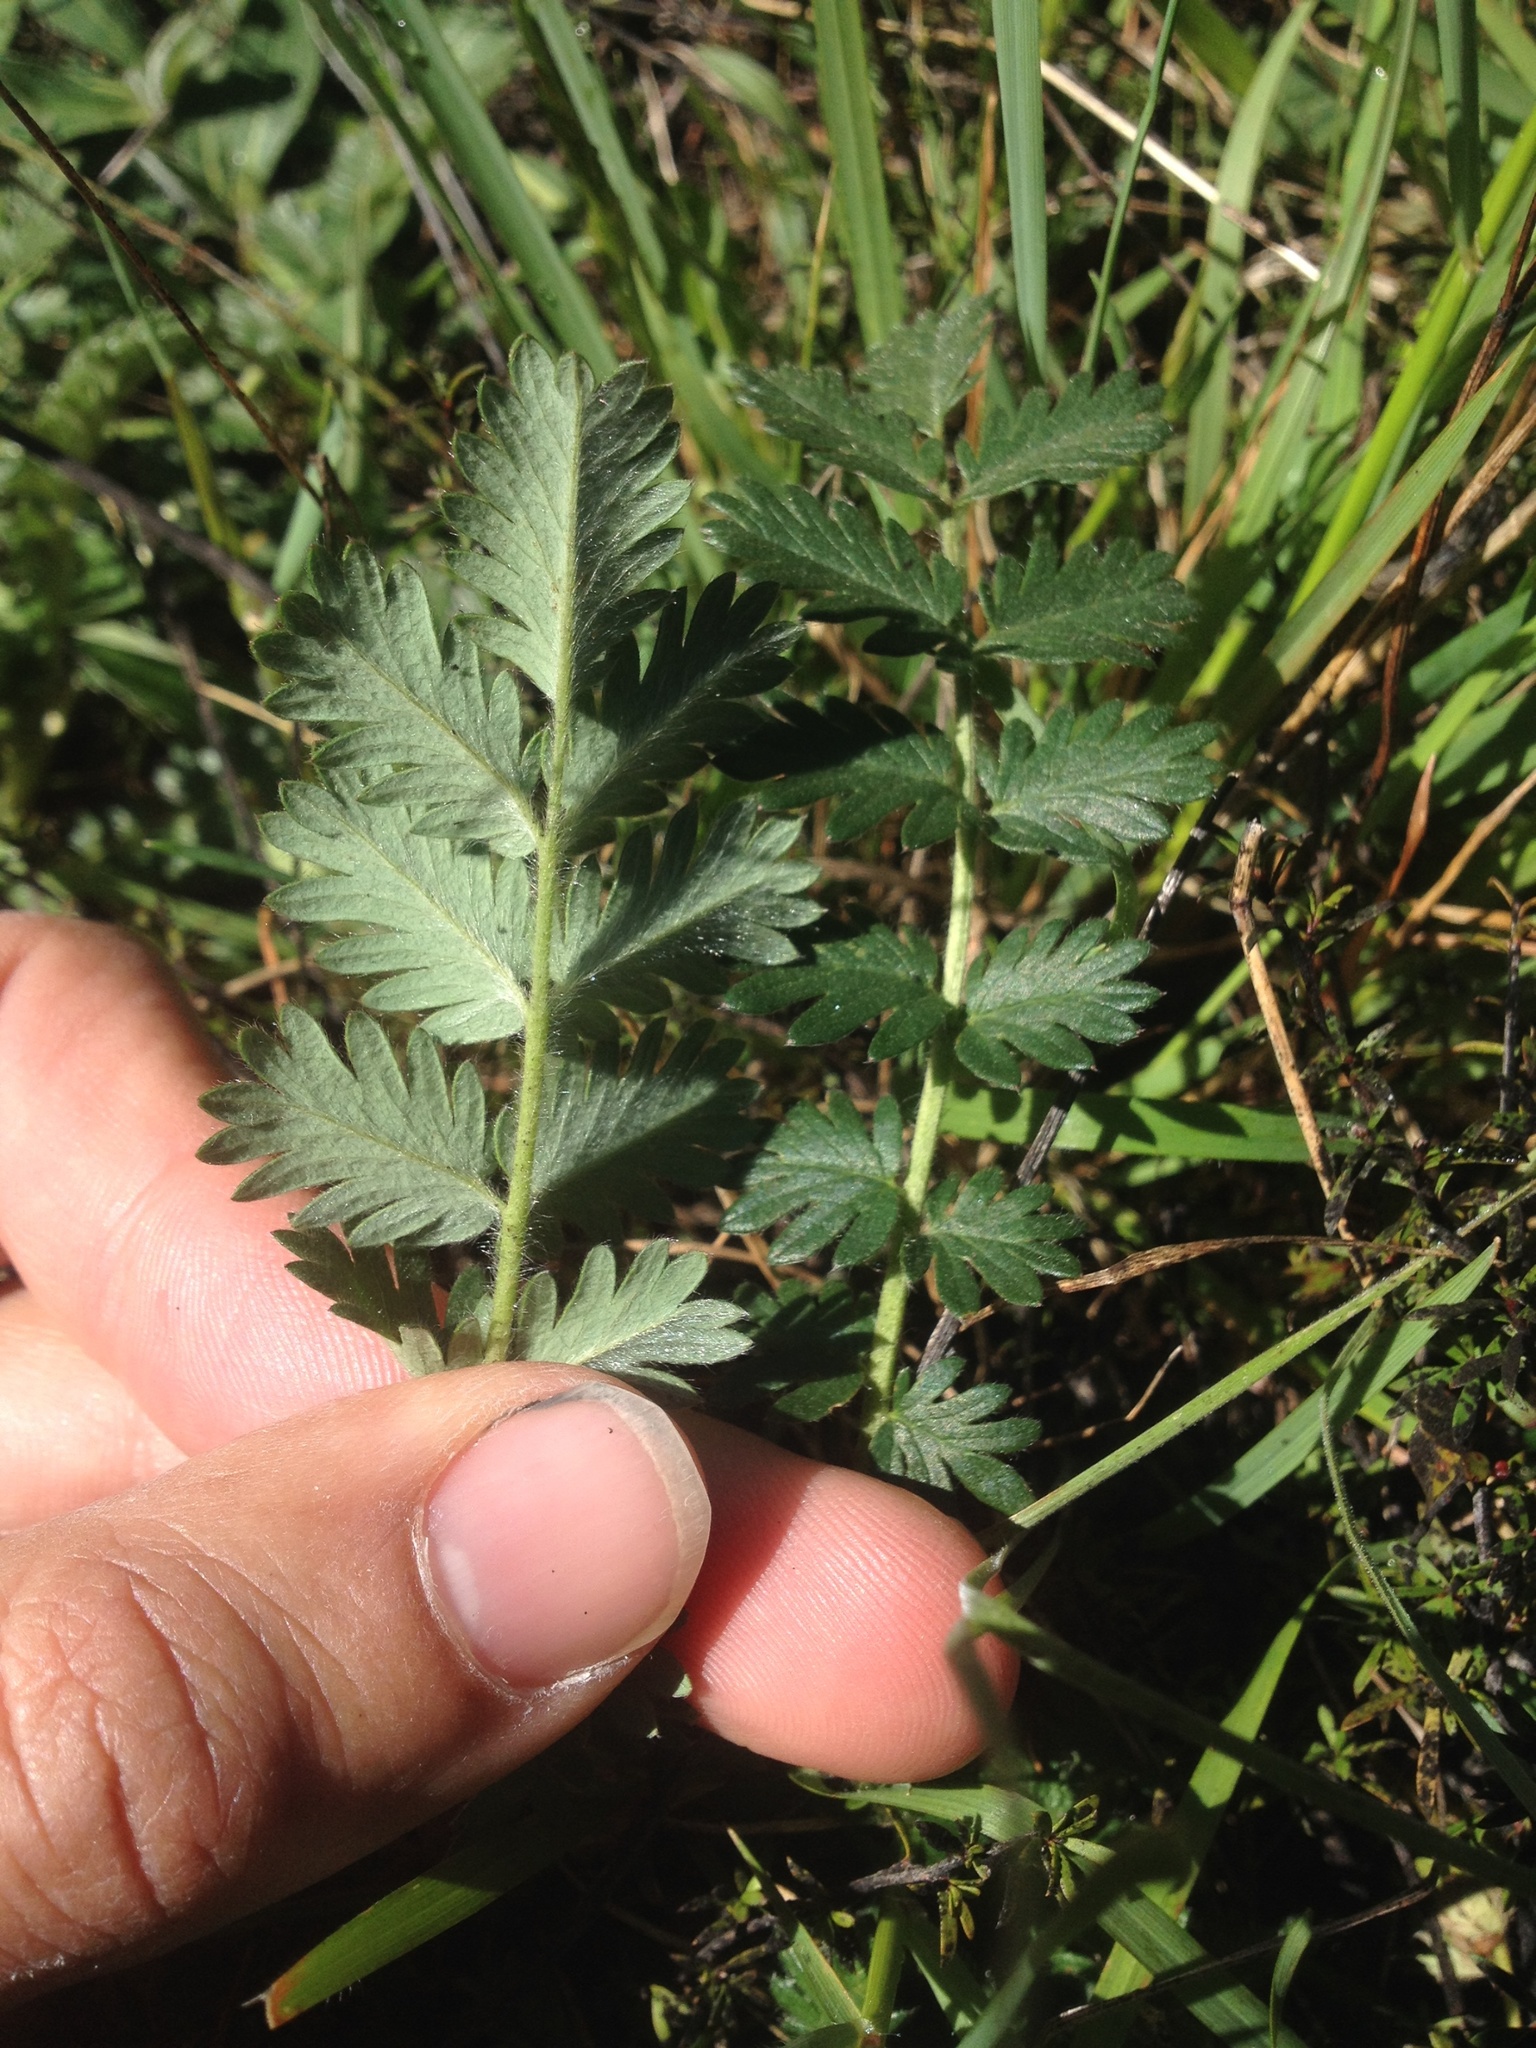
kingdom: Plantae
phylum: Tracheophyta
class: Magnoliopsida
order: Rosales
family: Rosaceae
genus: Acaena
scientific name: Acaena agnipila
